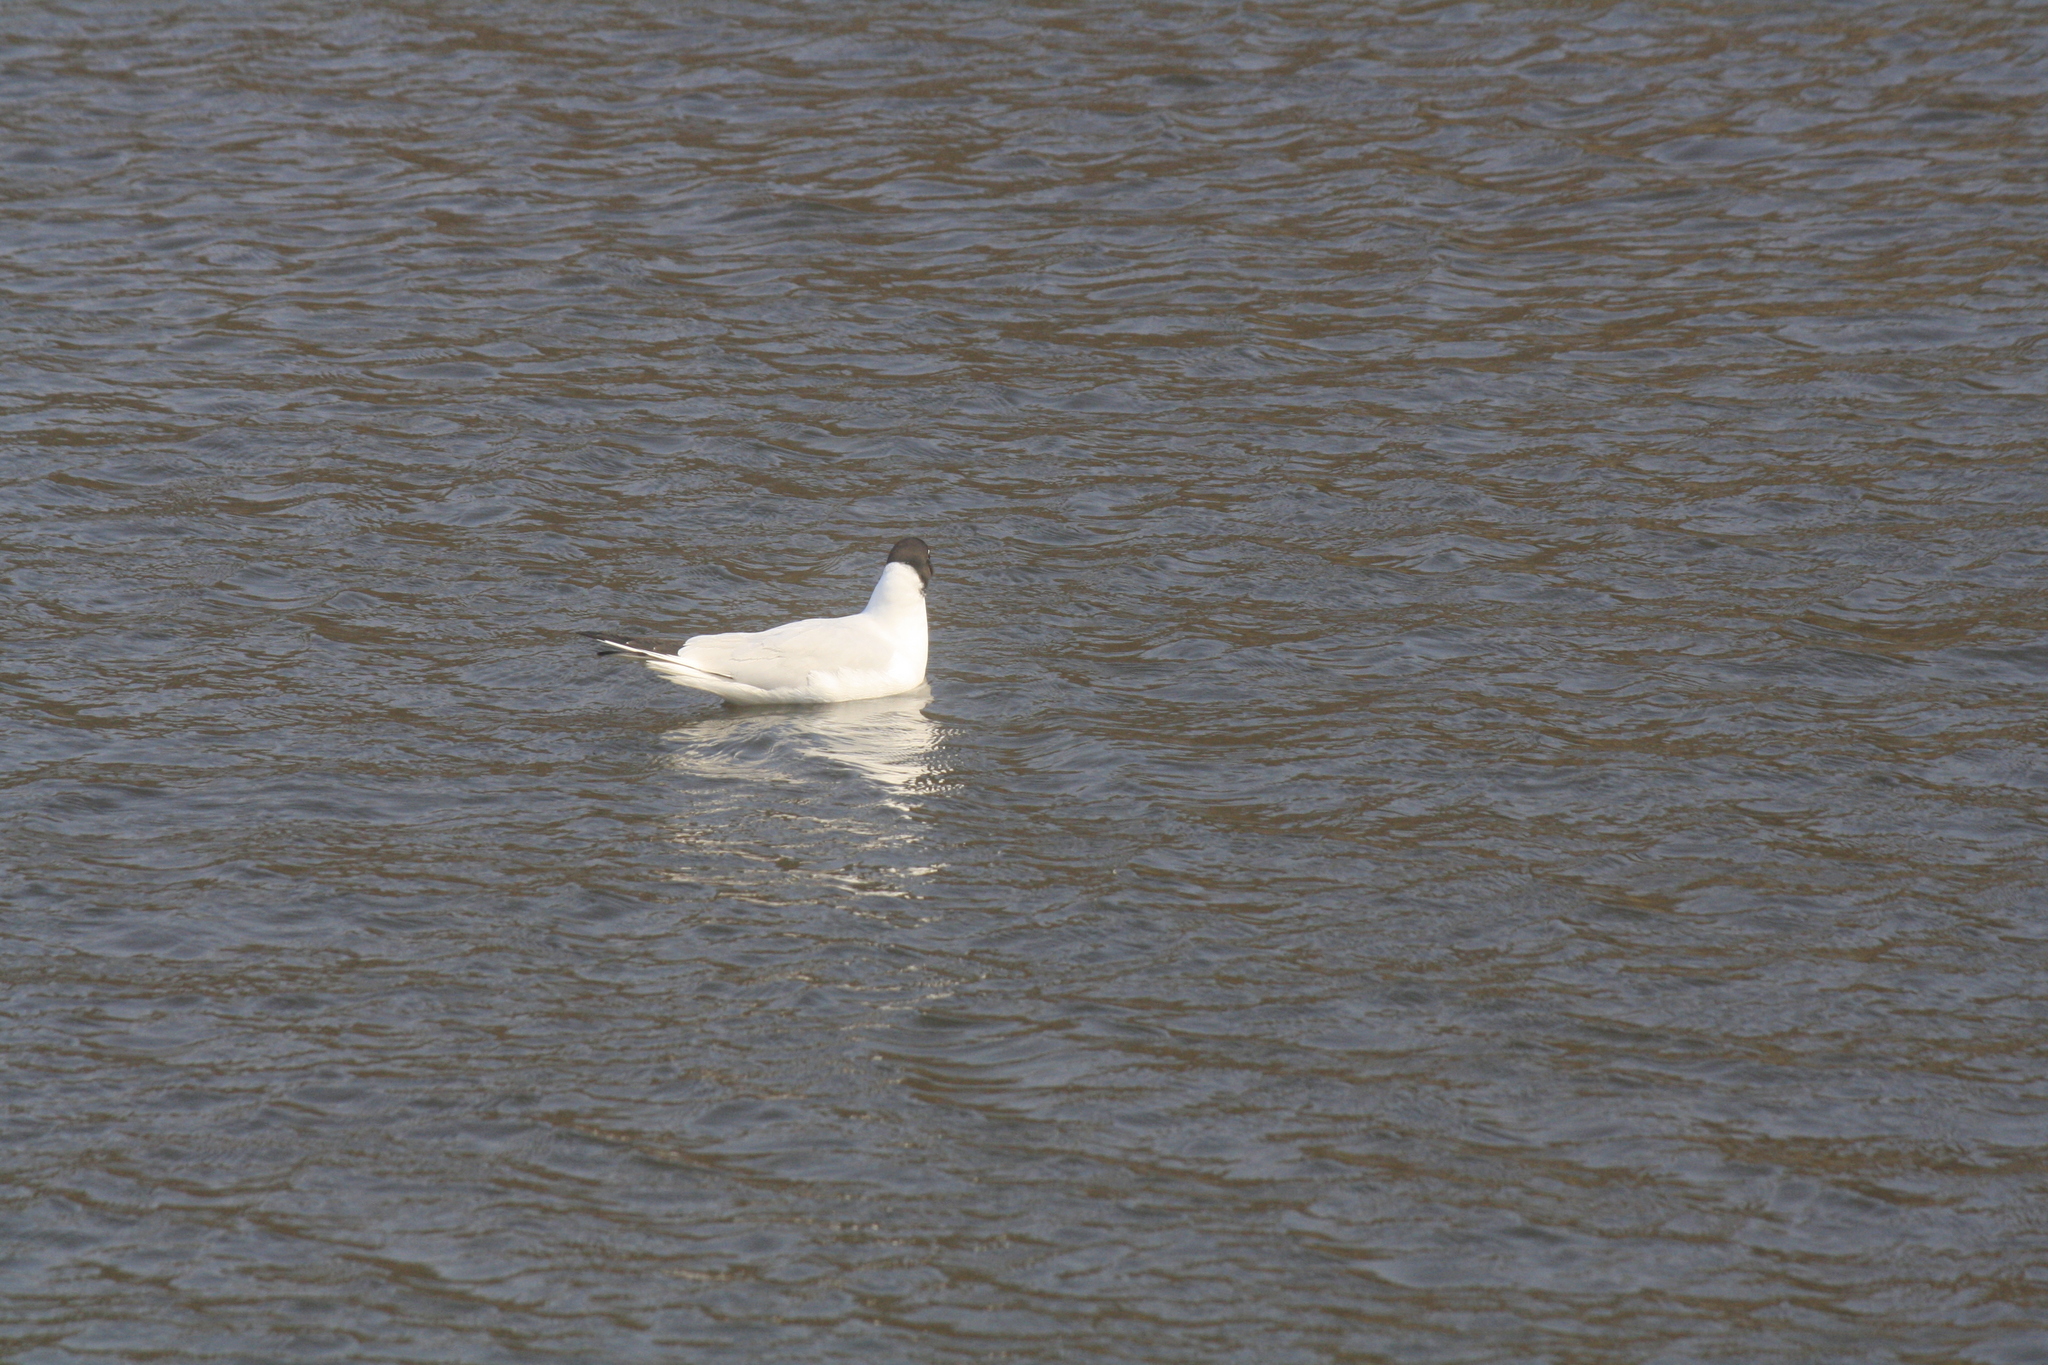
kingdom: Animalia
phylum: Chordata
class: Aves
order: Charadriiformes
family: Laridae
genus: Chroicocephalus
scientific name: Chroicocephalus ridibundus
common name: Black-headed gull
